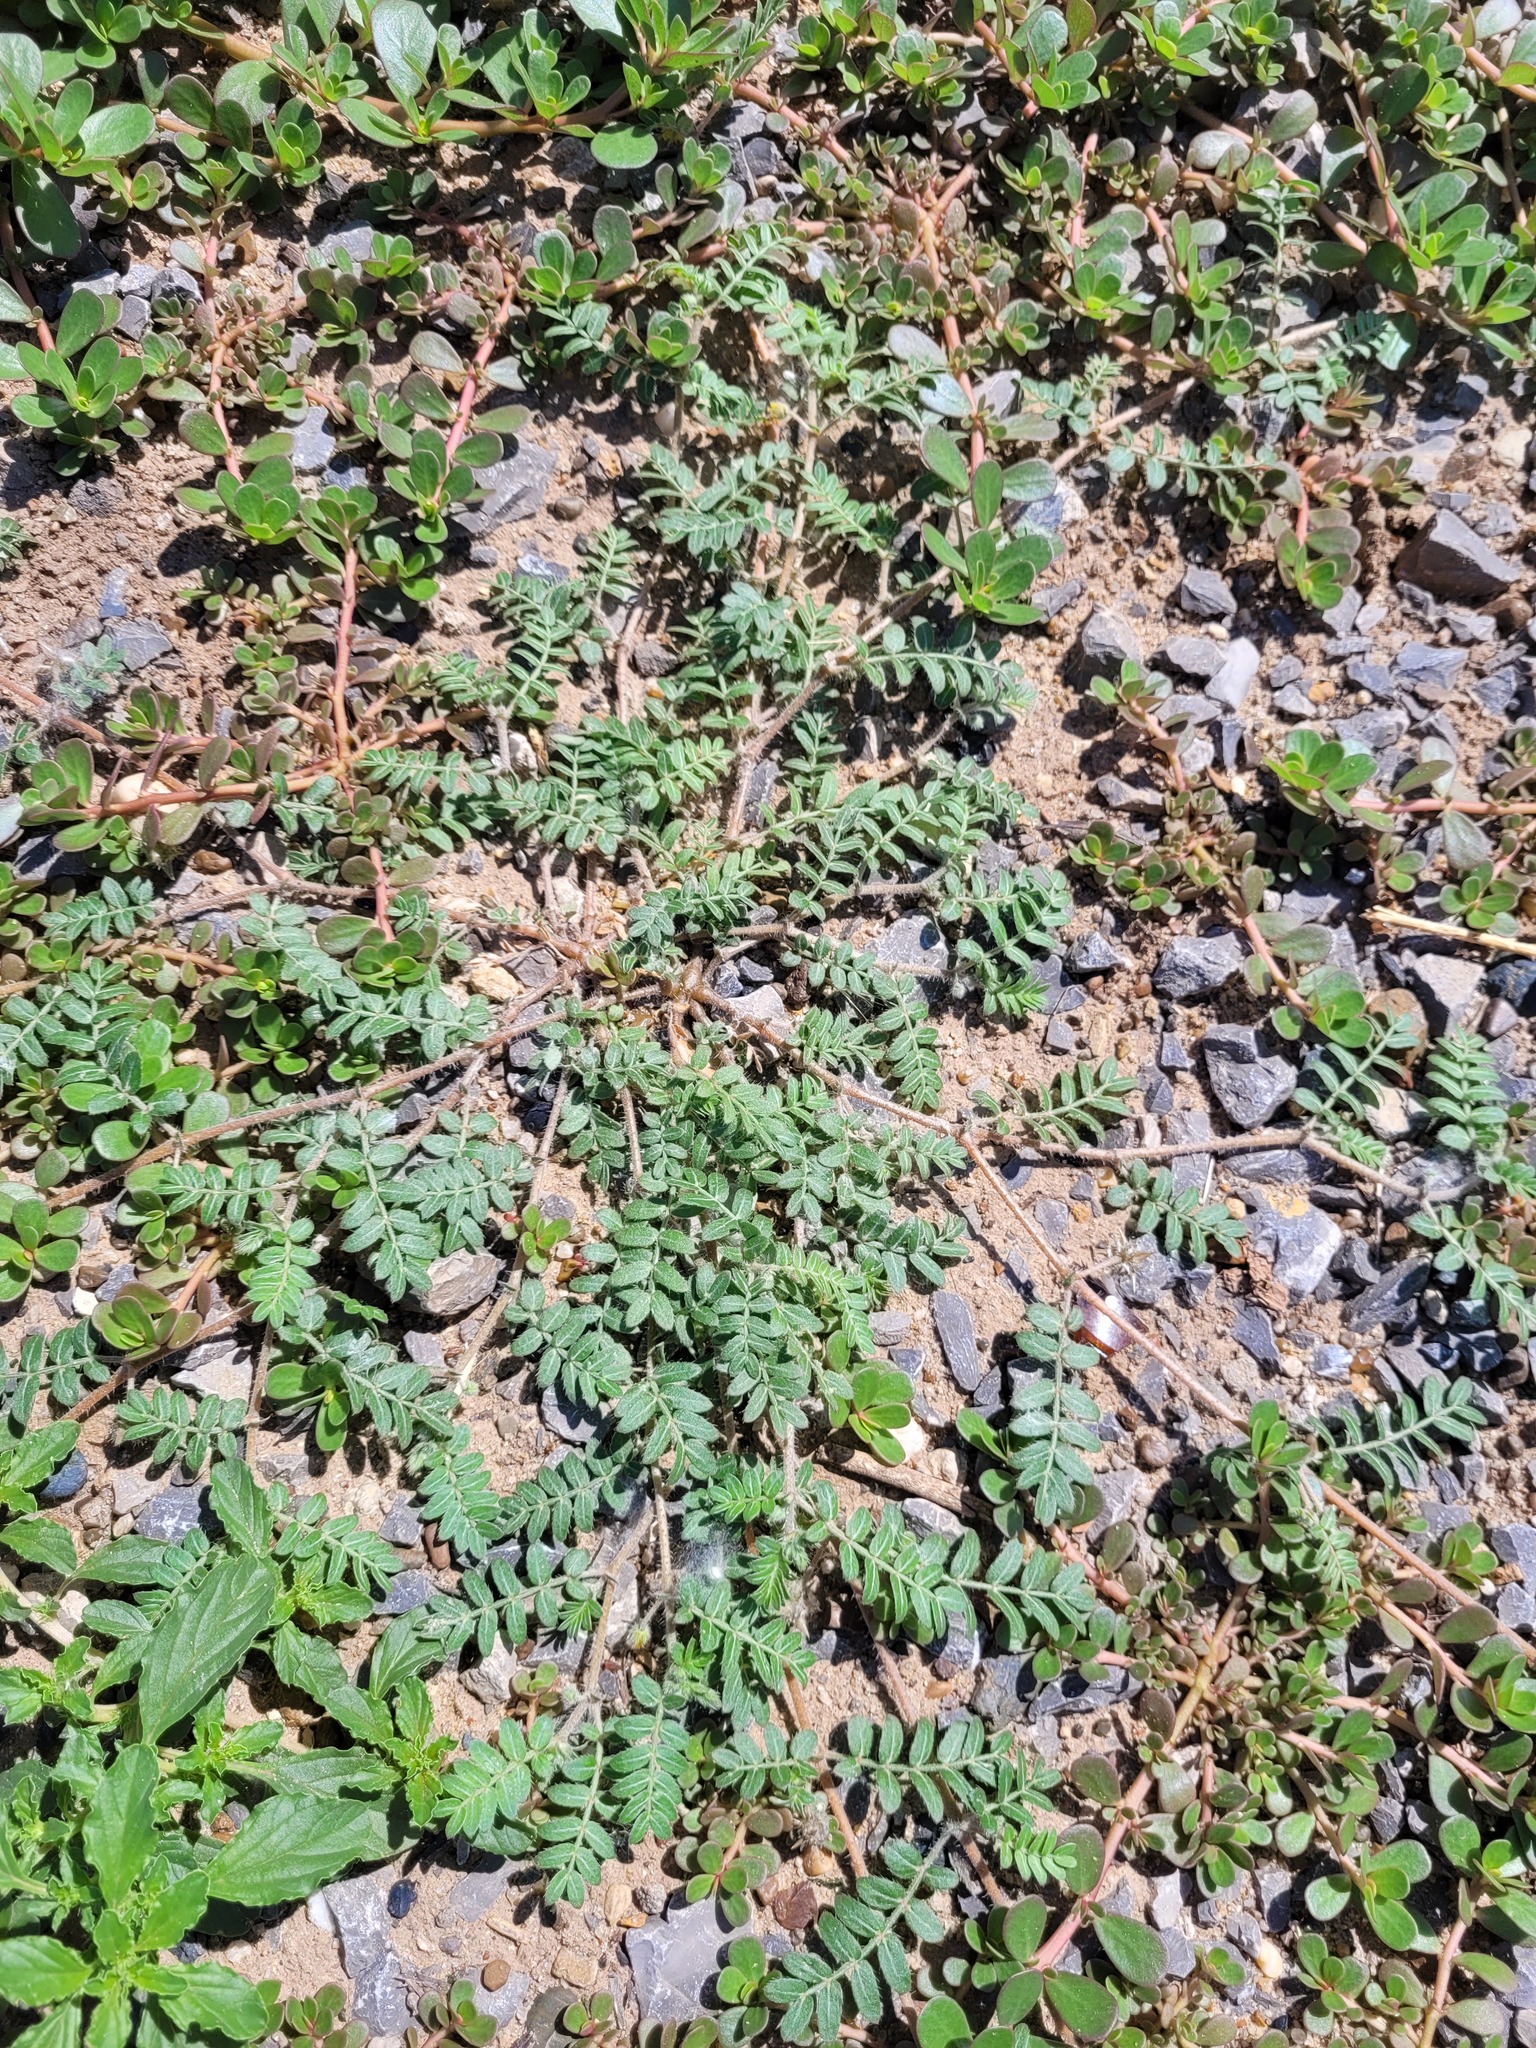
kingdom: Plantae
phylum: Tracheophyta
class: Magnoliopsida
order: Zygophyllales
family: Zygophyllaceae
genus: Tribulus
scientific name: Tribulus terrestris
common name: Puncturevine
